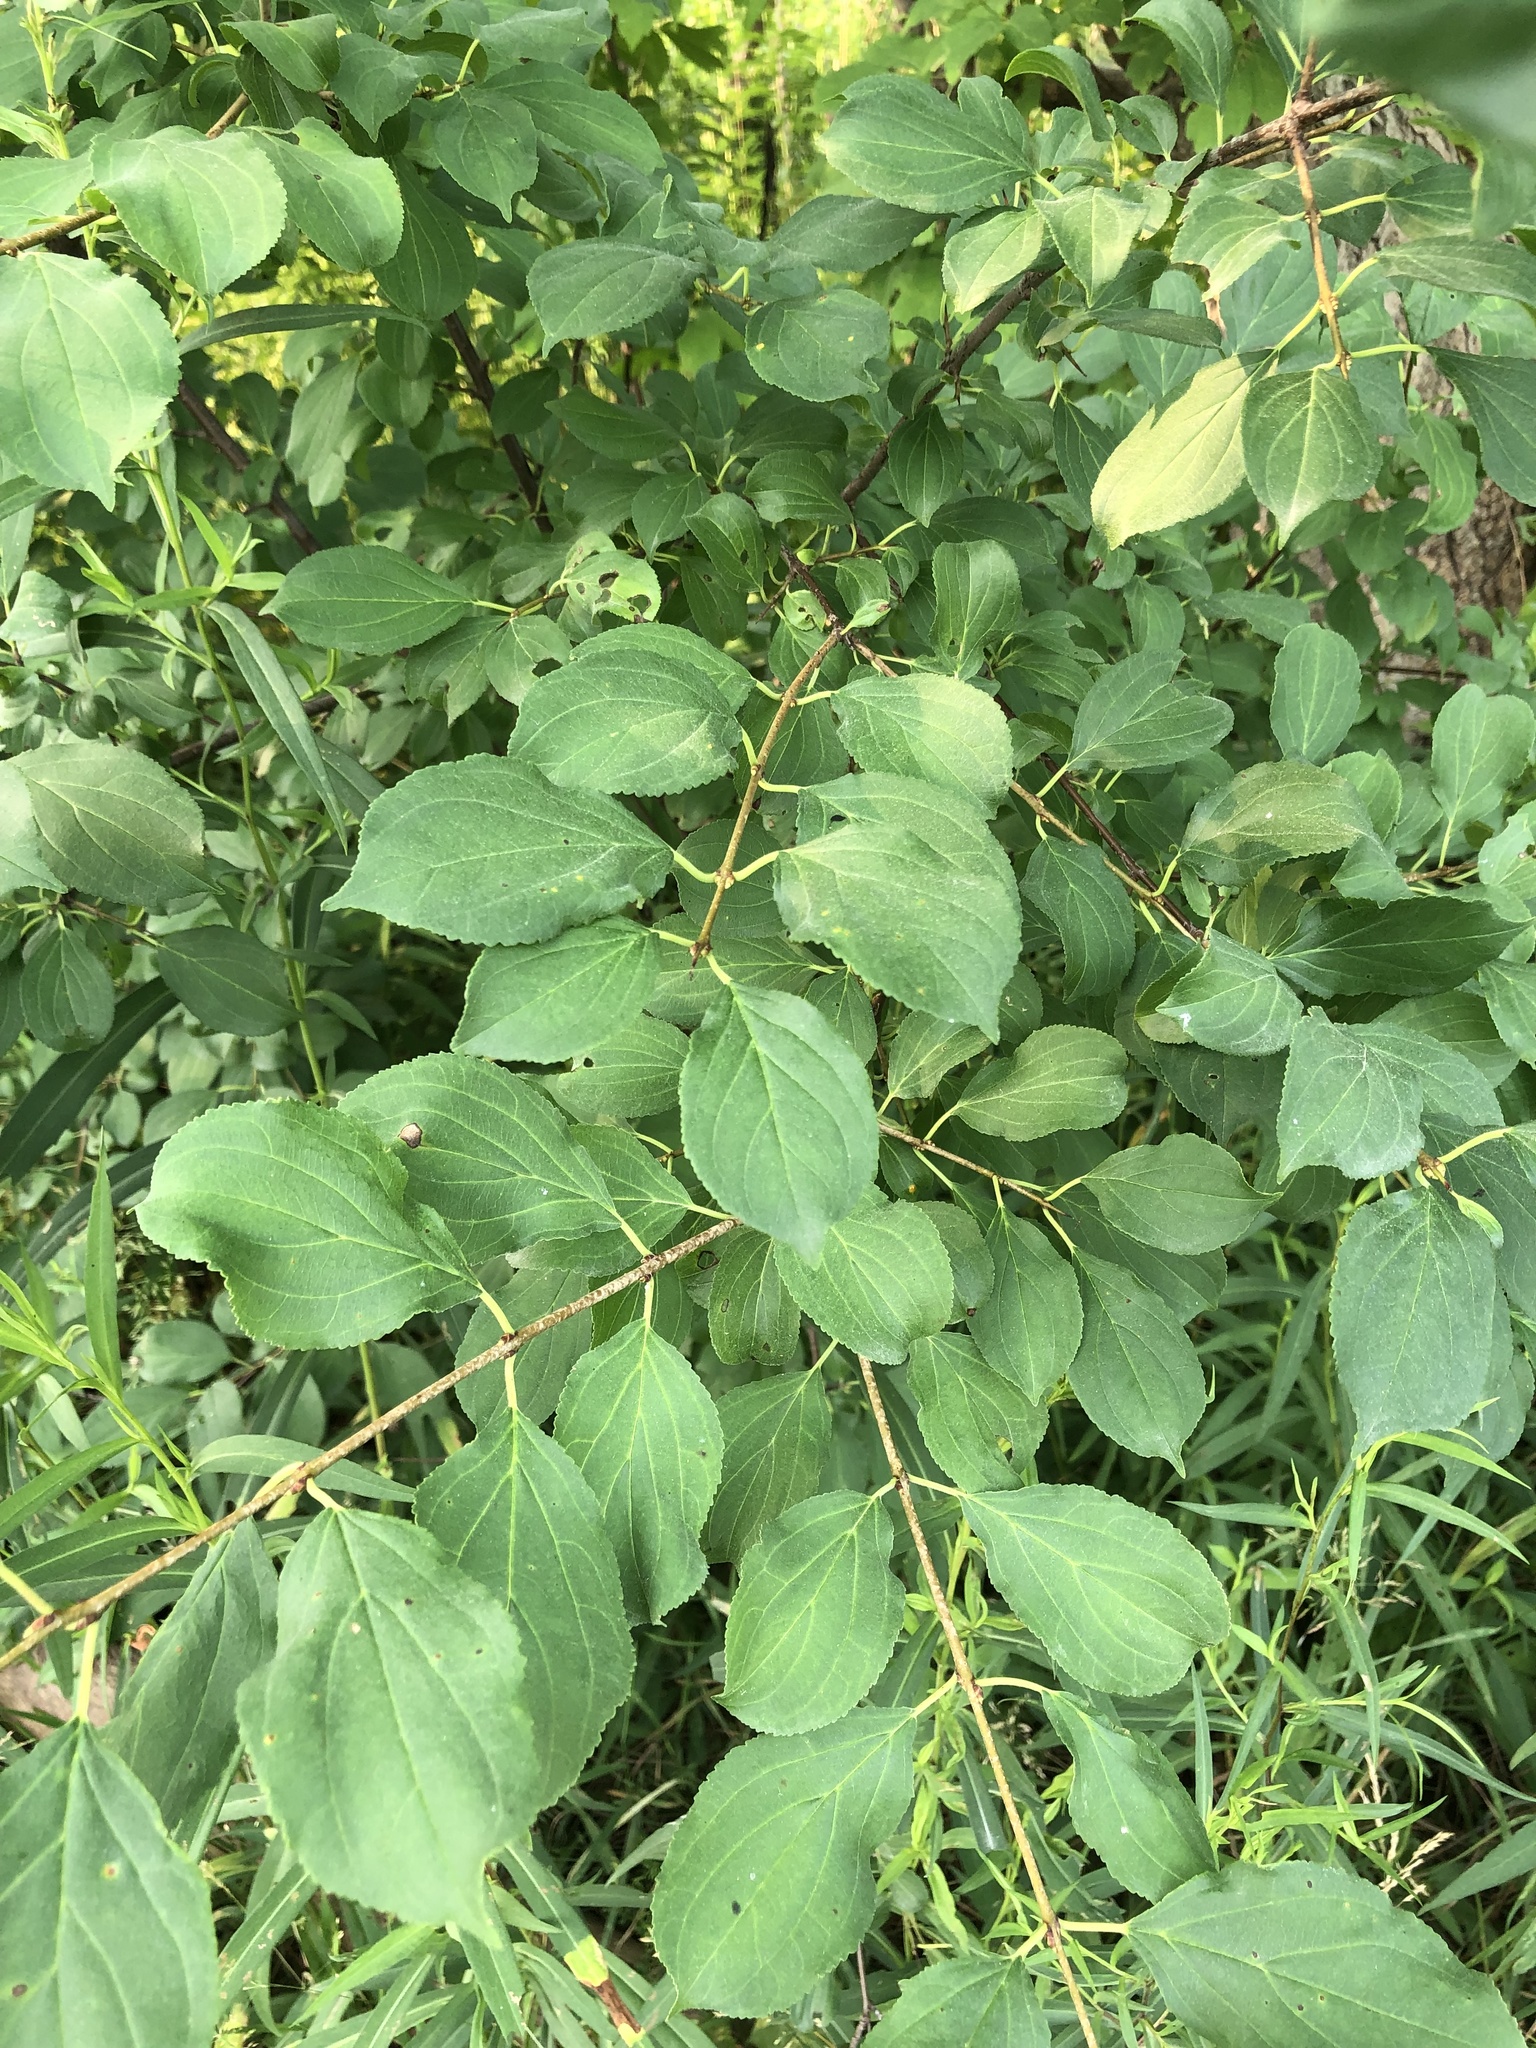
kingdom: Plantae
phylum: Tracheophyta
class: Magnoliopsida
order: Rosales
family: Rhamnaceae
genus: Rhamnus
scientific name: Rhamnus cathartica
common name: Common buckthorn
